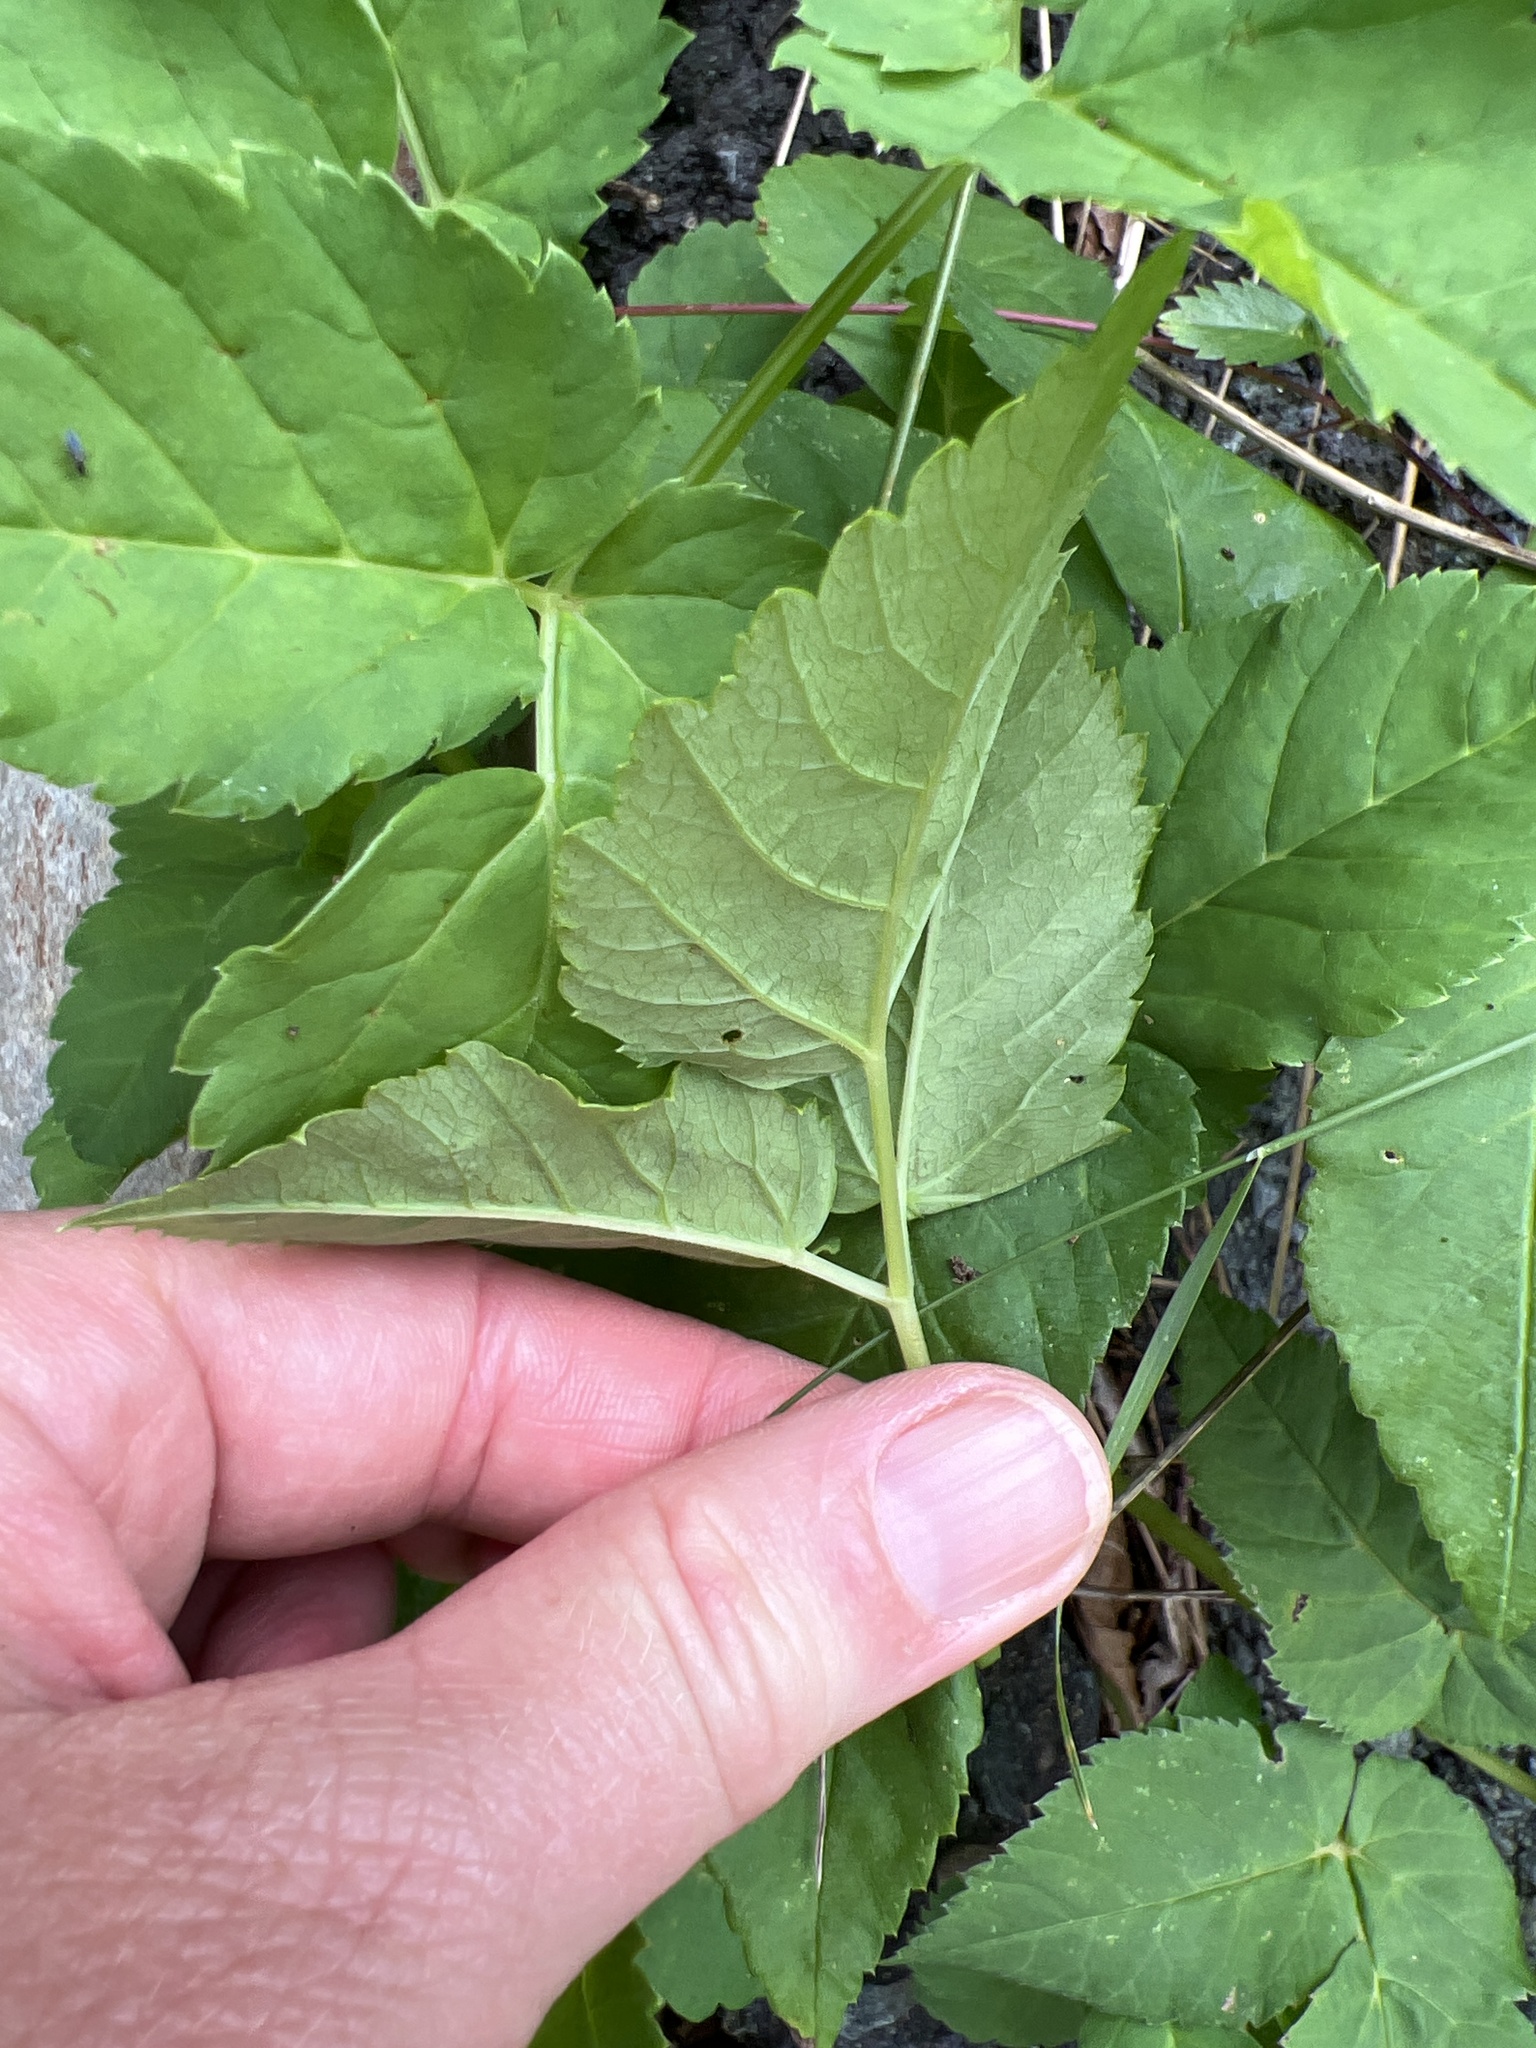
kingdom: Plantae
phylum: Tracheophyta
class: Magnoliopsida
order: Apiales
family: Apiaceae
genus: Aegopodium
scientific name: Aegopodium podagraria
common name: Ground-elder
